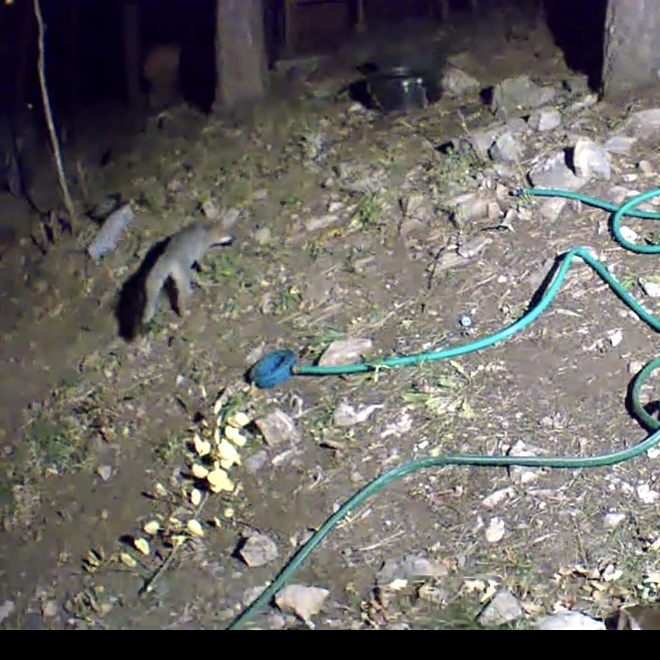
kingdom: Animalia
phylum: Chordata
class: Mammalia
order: Carnivora
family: Canidae
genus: Urocyon
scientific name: Urocyon cinereoargenteus
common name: Gray fox
